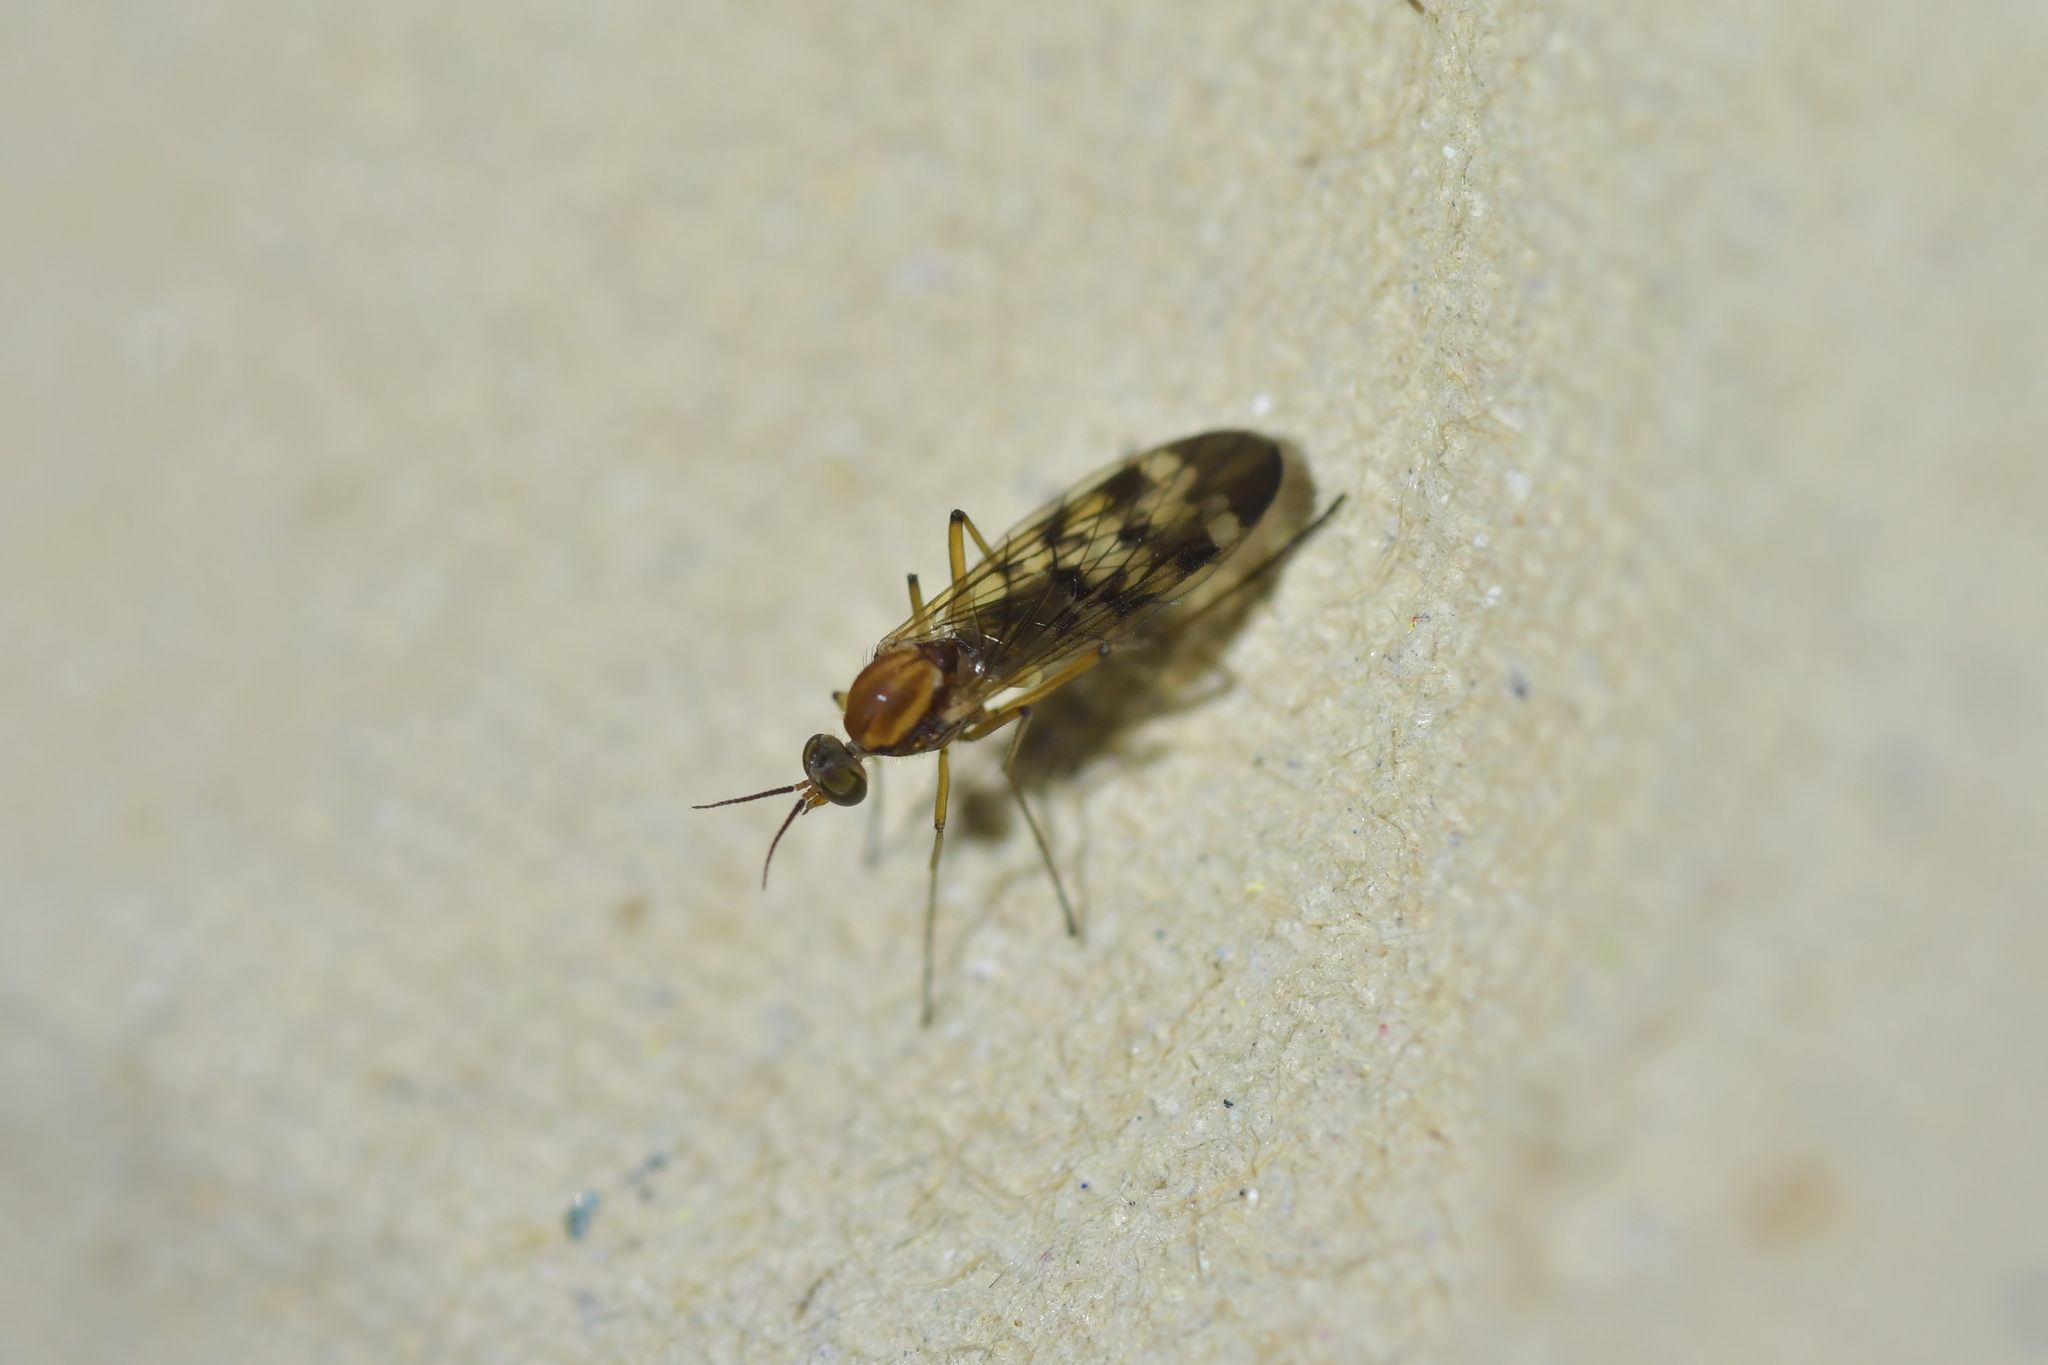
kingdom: Animalia
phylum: Arthropoda
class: Insecta
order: Diptera
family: Anisopodidae
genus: Sylvicola
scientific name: Sylvicola notatus
